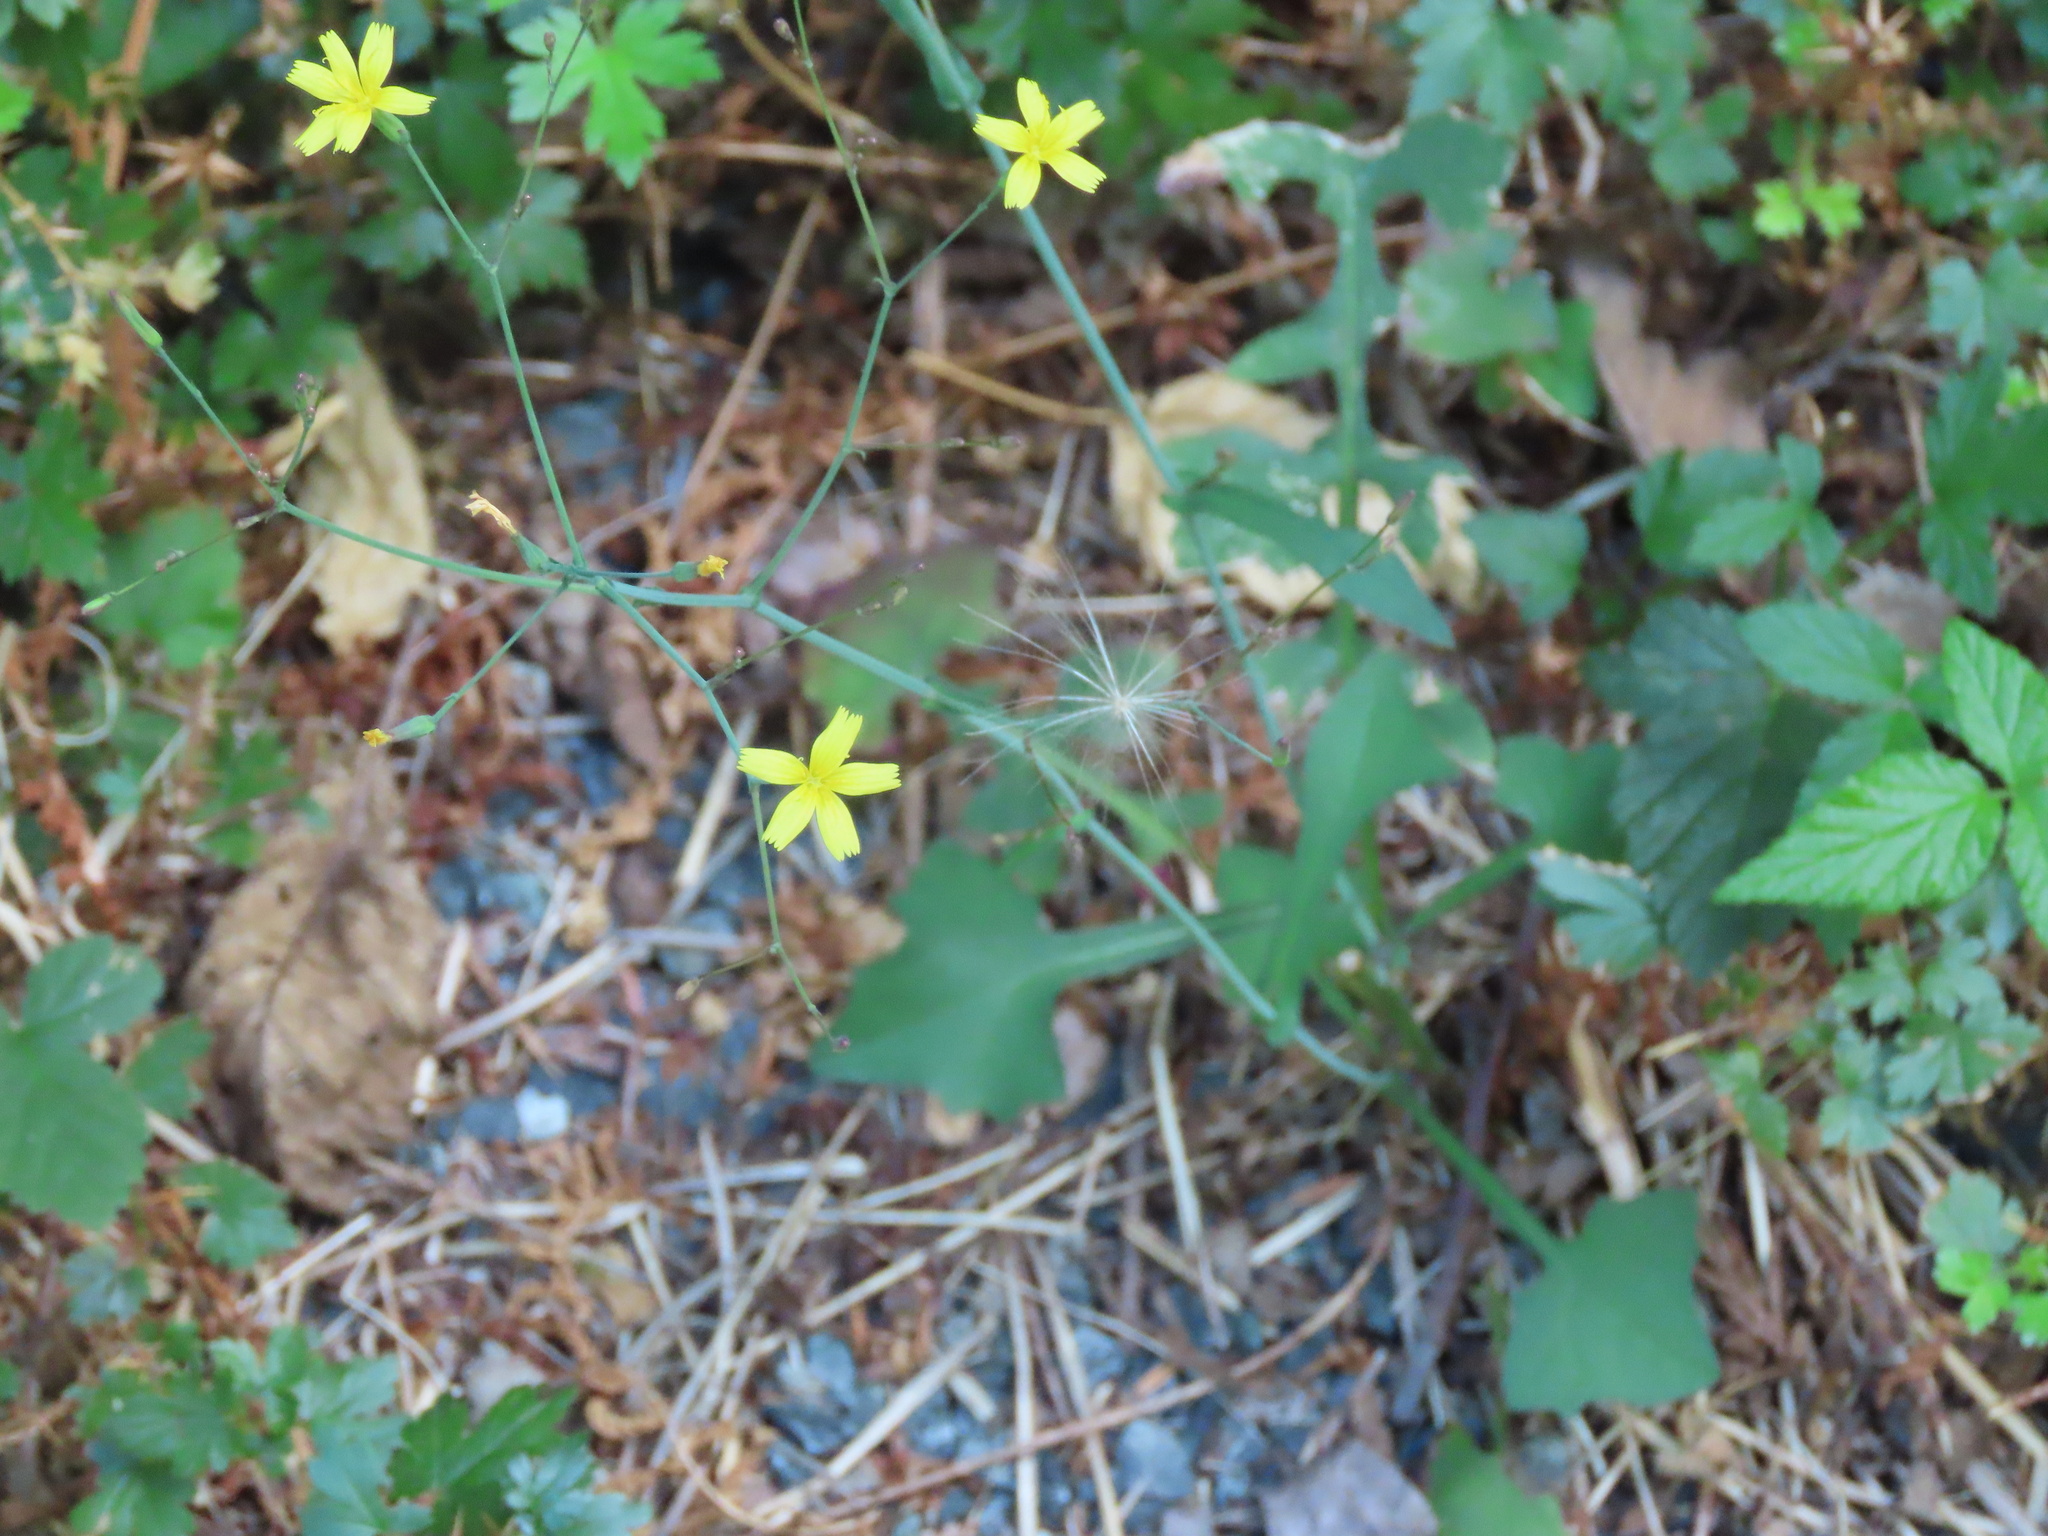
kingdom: Plantae
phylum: Tracheophyta
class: Magnoliopsida
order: Asterales
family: Asteraceae
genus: Mycelis
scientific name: Mycelis muralis
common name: Wall lettuce
